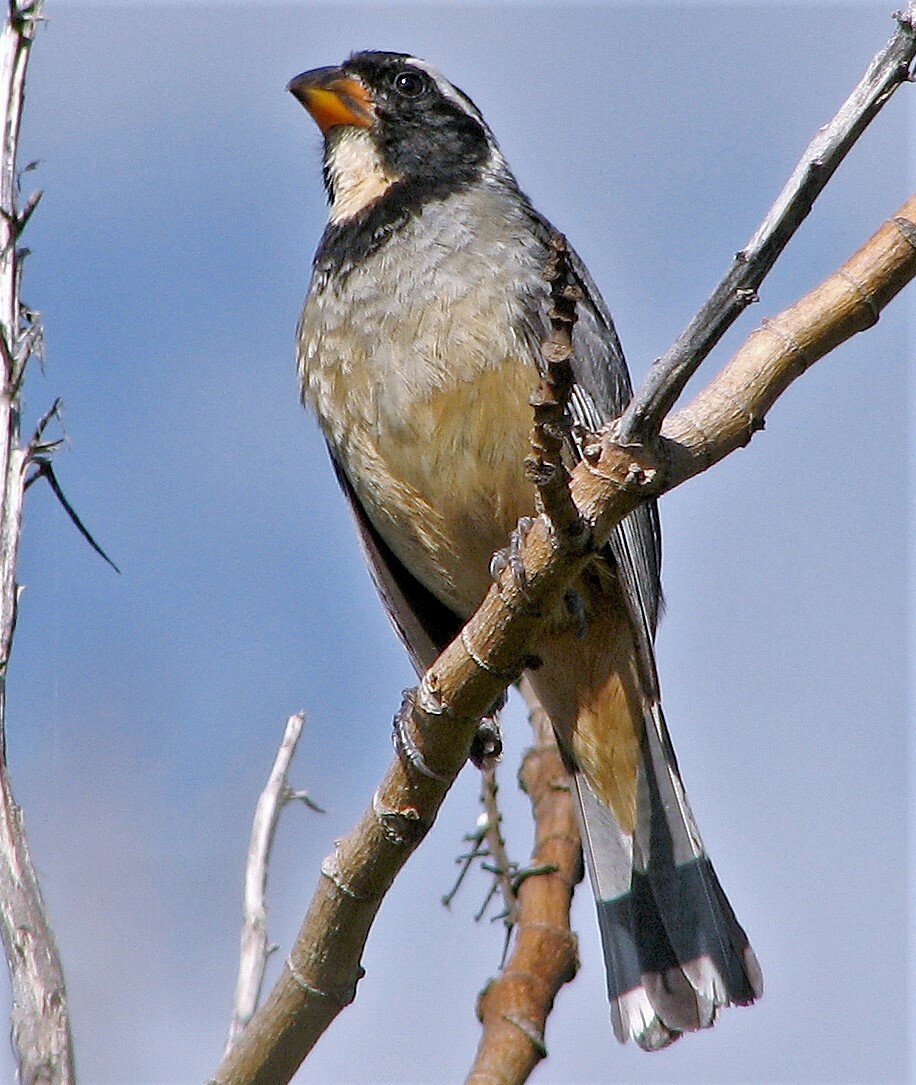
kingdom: Animalia
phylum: Chordata
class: Aves
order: Passeriformes
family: Thraupidae
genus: Saltator
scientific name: Saltator aurantiirostris
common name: Golden-billed saltator
